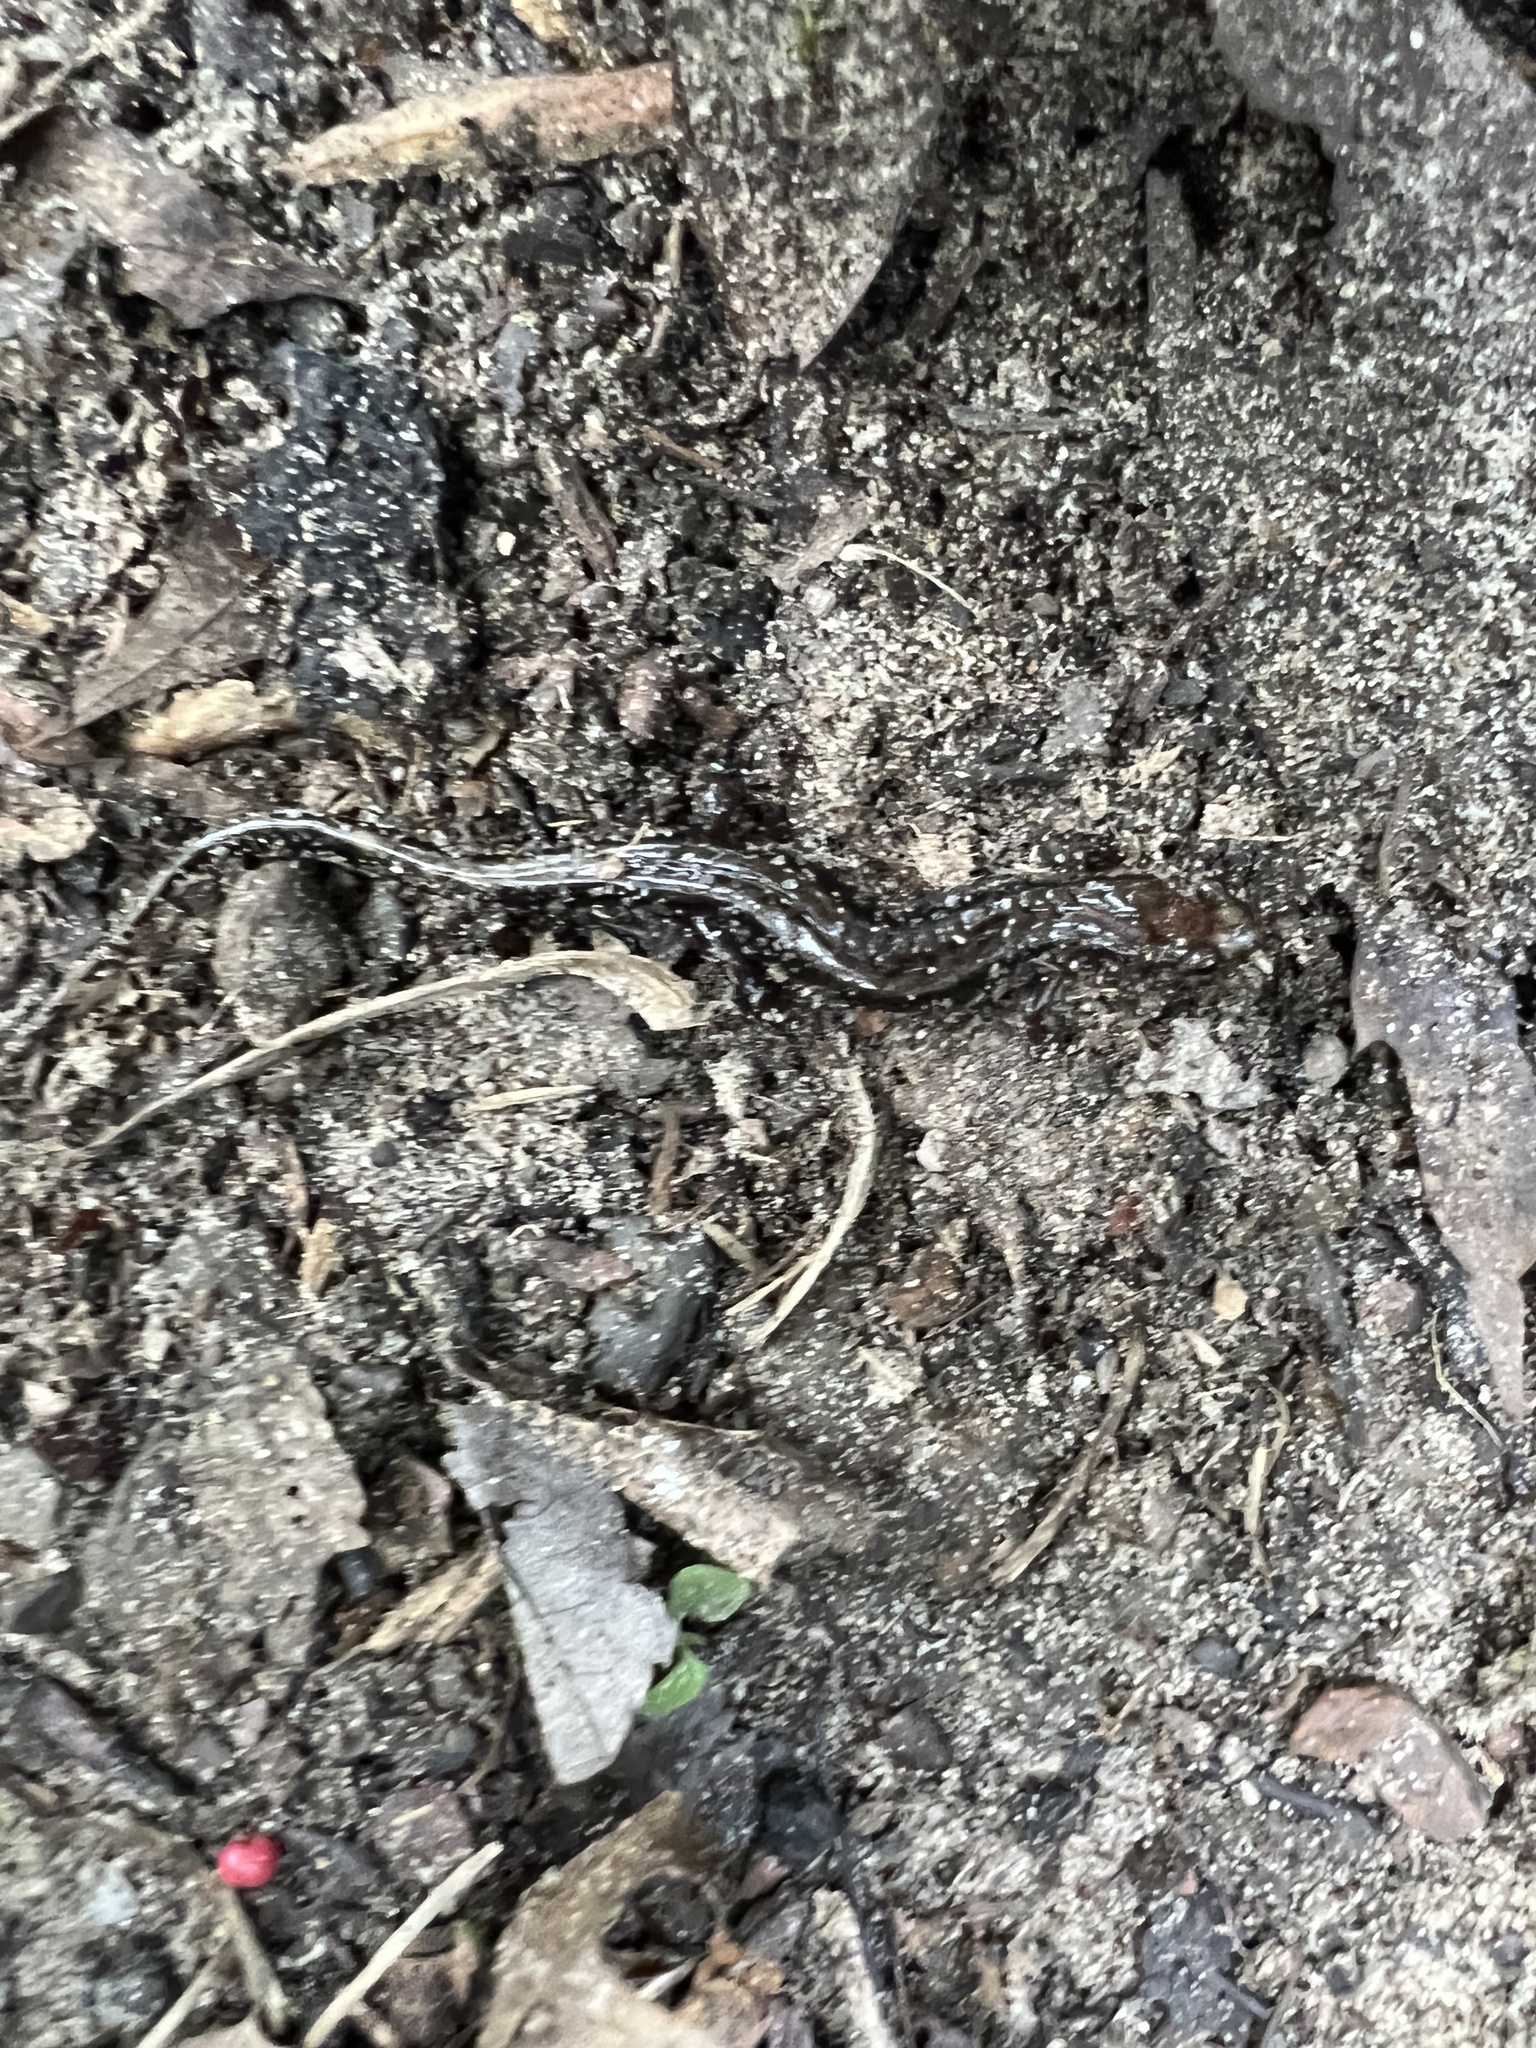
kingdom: Animalia
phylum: Chordata
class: Amphibia
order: Caudata
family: Plethodontidae
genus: Desmognathus
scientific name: Desmognathus ochrophaeus
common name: Allegheny mountain dusky salamander
